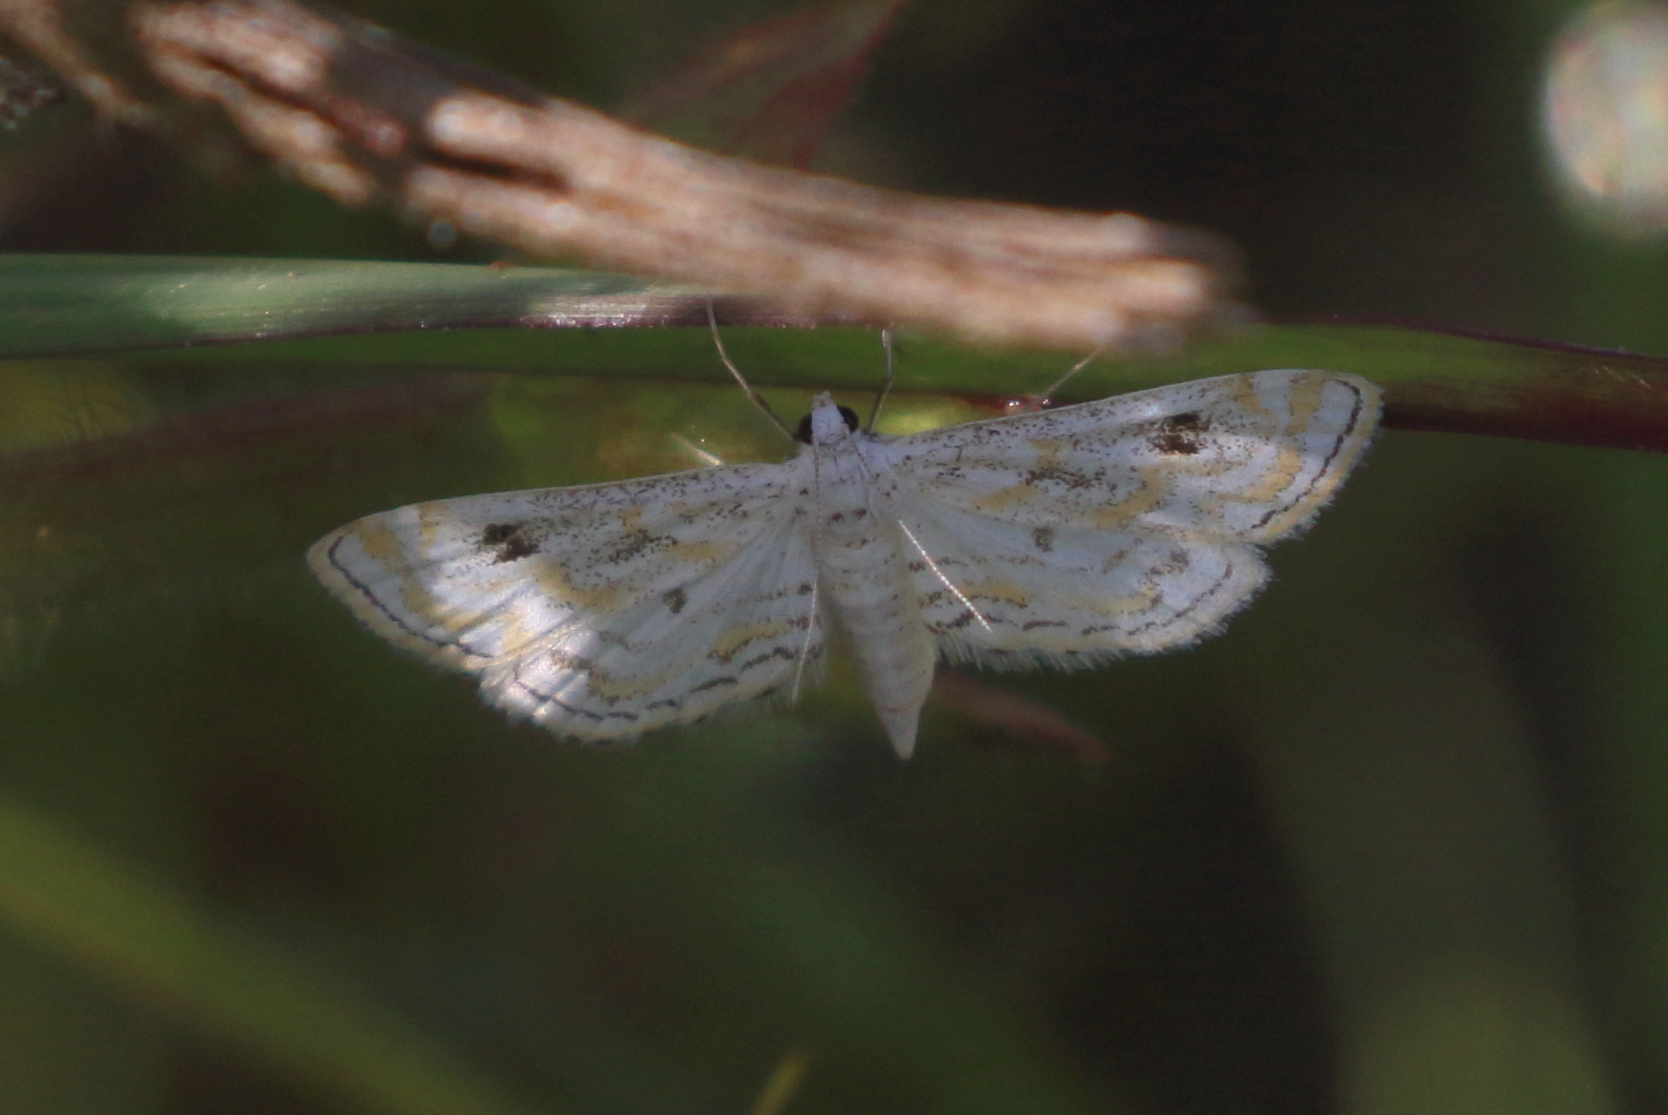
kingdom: Animalia
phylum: Arthropoda
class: Insecta
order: Lepidoptera
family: Crambidae
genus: Parapoynx
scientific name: Parapoynx diminutalis
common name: Hydrilla leafcutter
